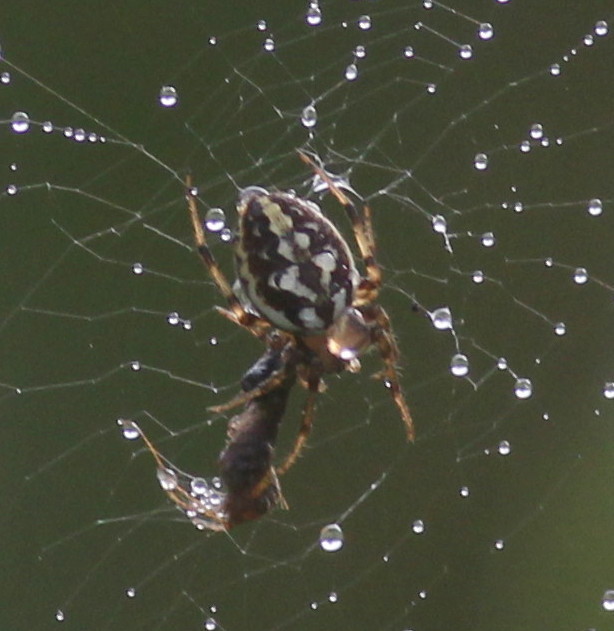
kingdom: Animalia
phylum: Arthropoda
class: Arachnida
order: Araneae
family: Araneidae
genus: Neoscona
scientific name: Neoscona adianta
